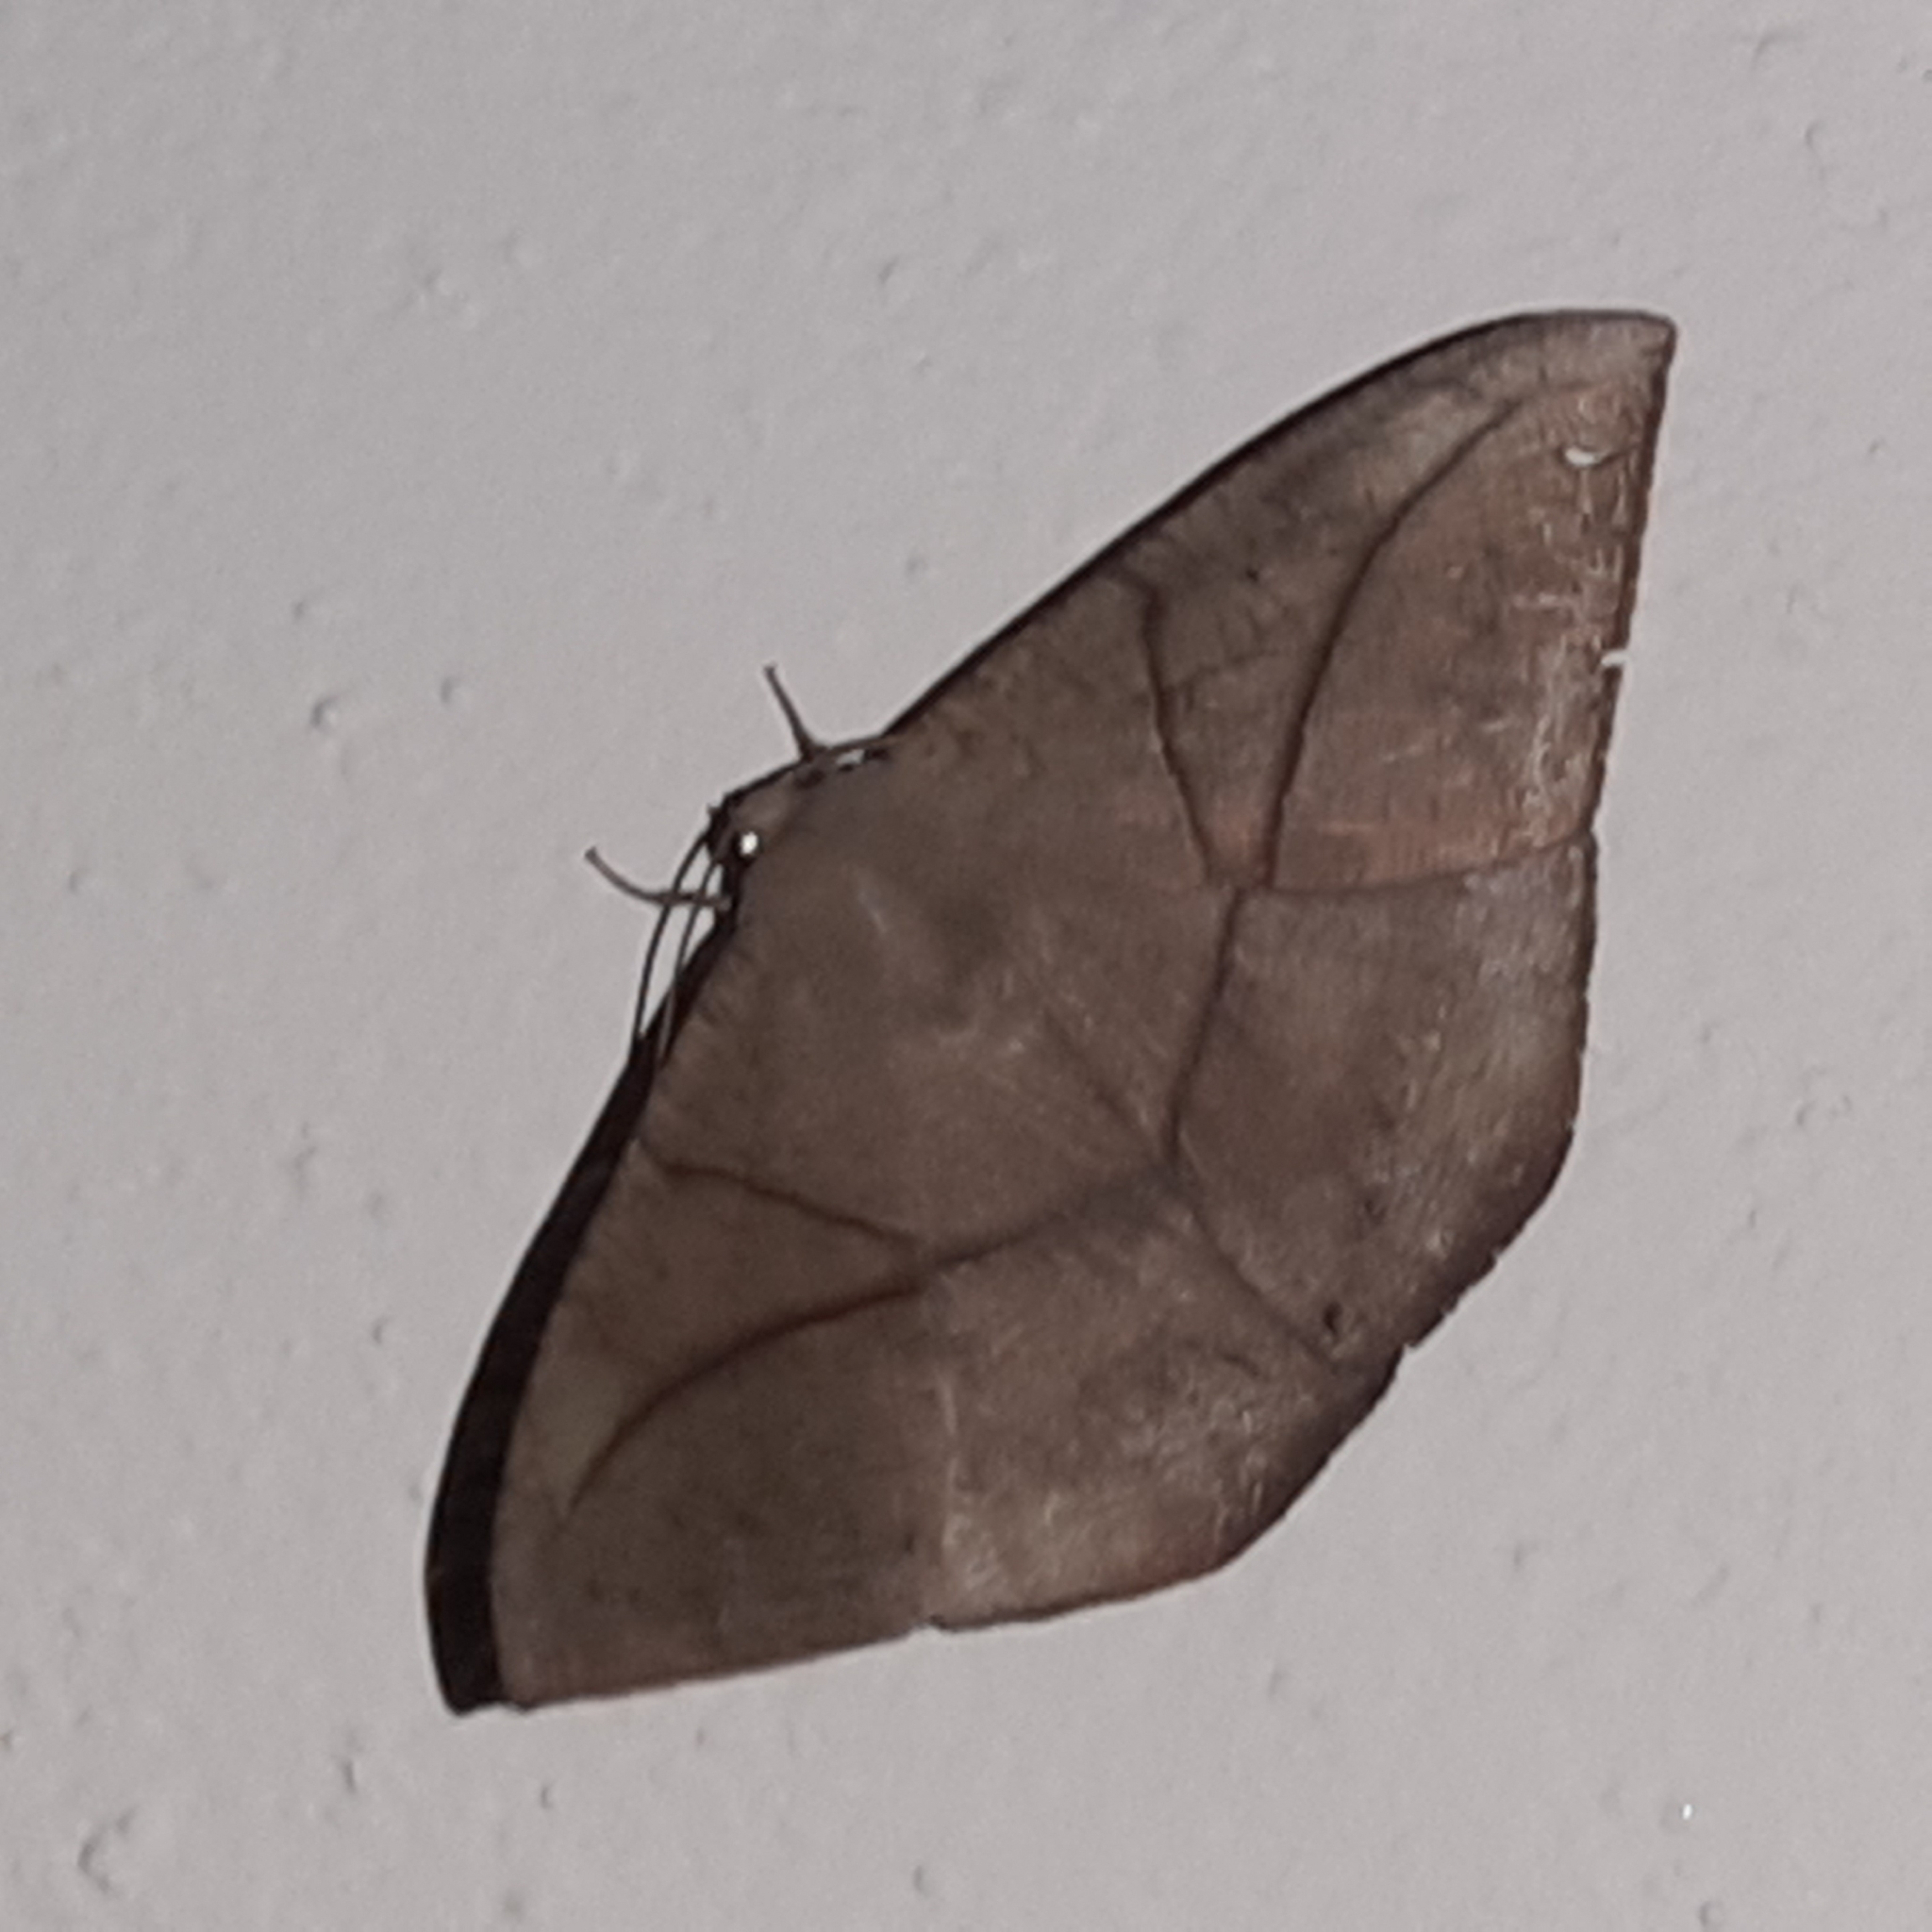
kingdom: Animalia
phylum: Arthropoda
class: Insecta
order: Lepidoptera
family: Geometridae
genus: Oxydia
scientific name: Oxydia trychiata
